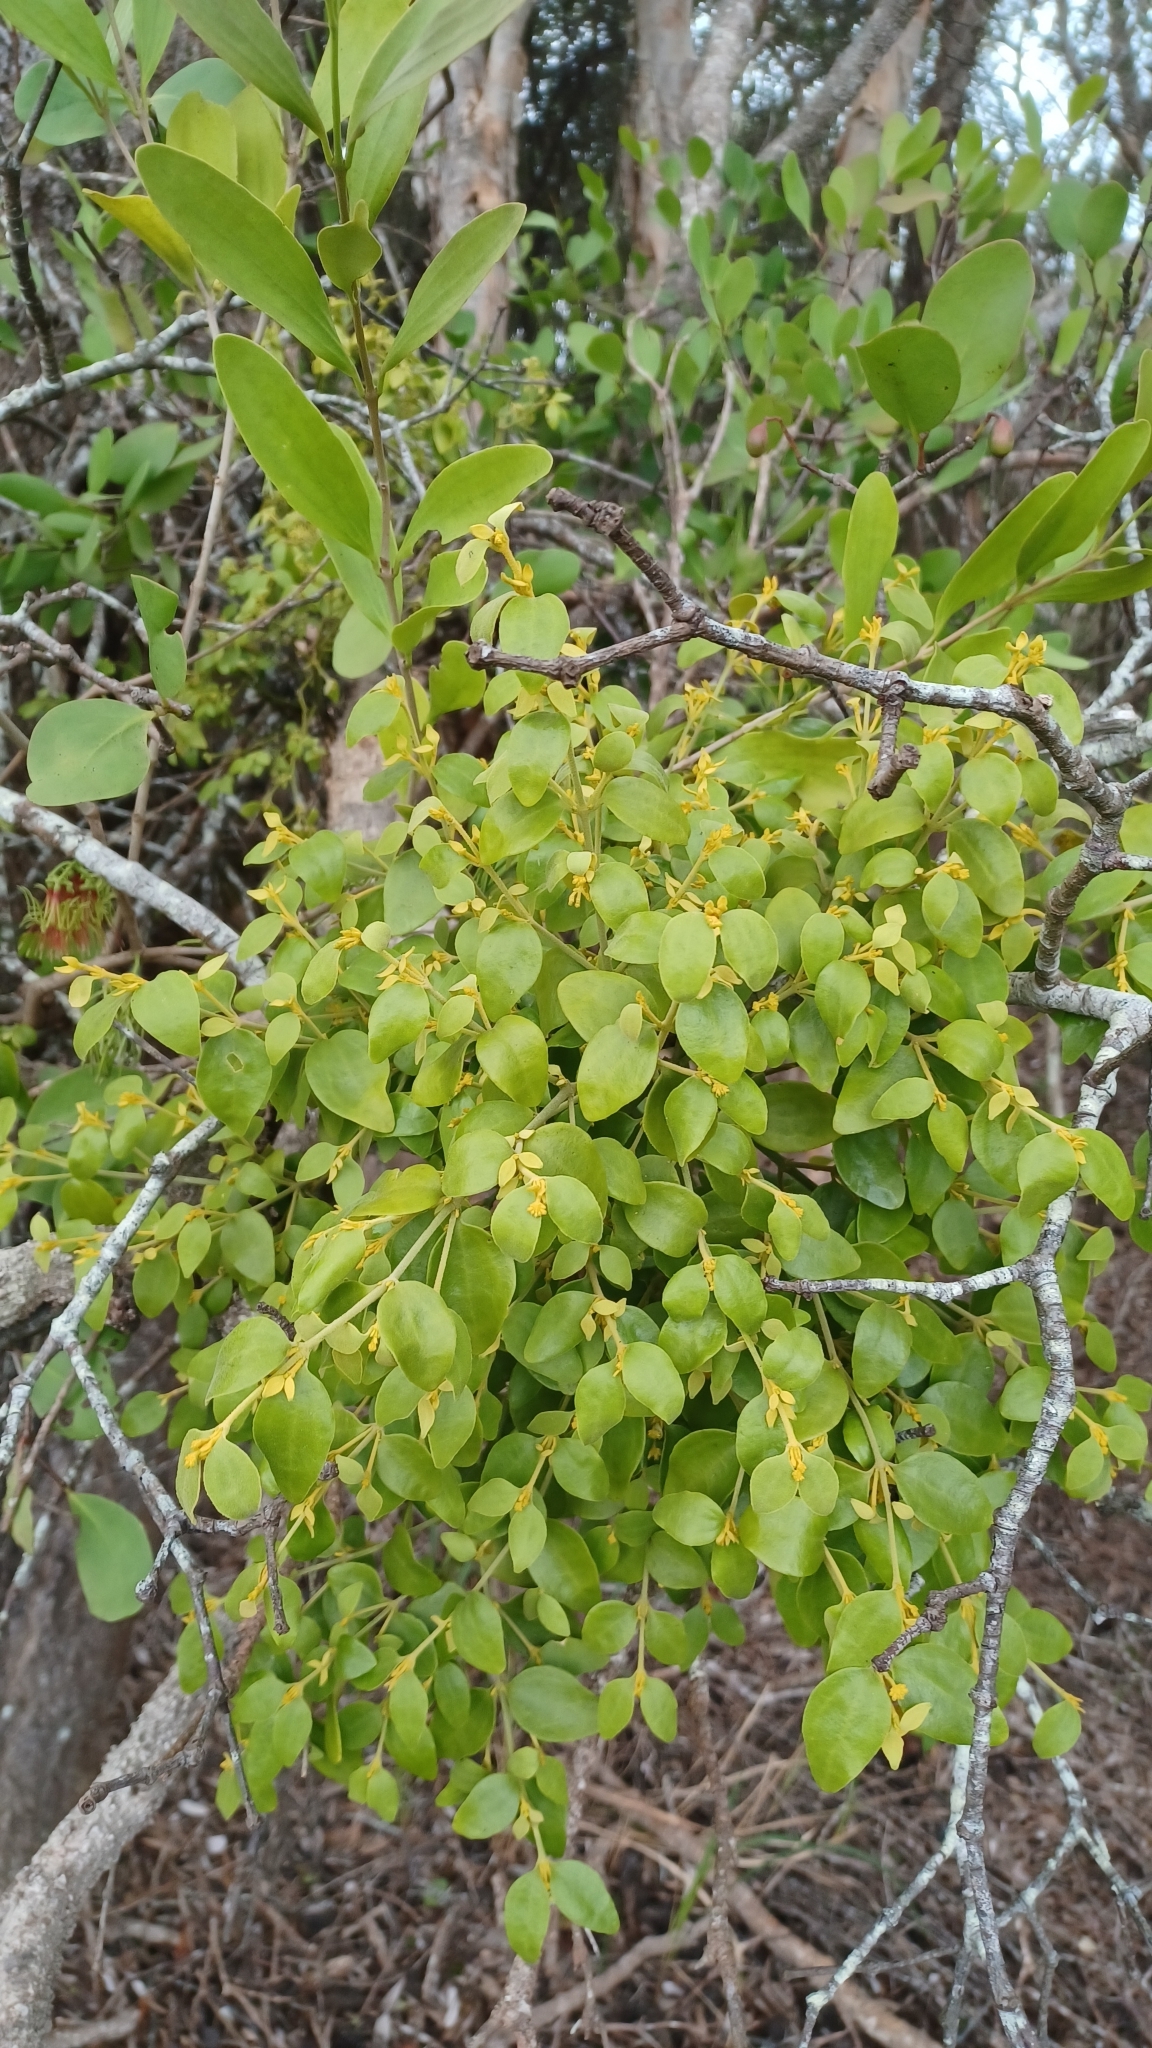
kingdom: Plantae
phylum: Tracheophyta
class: Magnoliopsida
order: Santalales
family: Viscaceae
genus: Notothixos
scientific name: Notothixos subaureus
